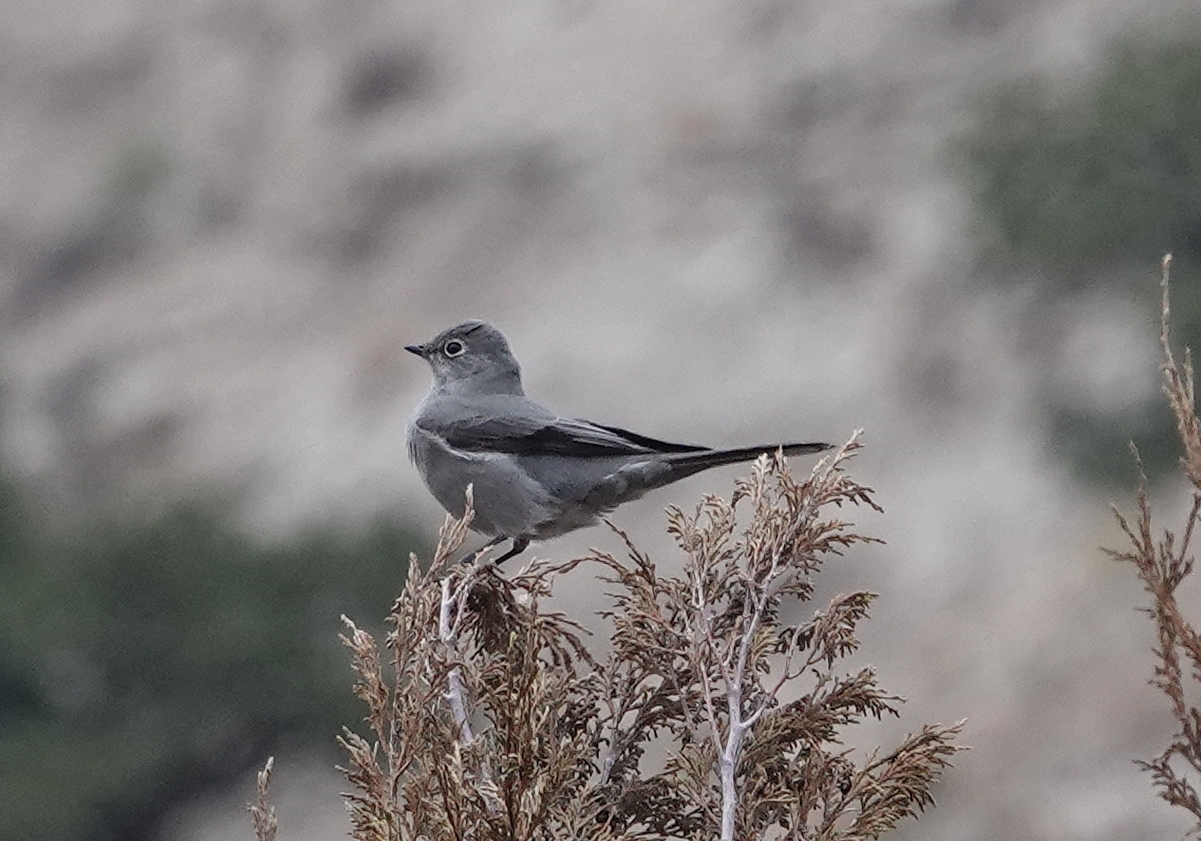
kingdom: Animalia
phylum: Chordata
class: Aves
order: Passeriformes
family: Turdidae
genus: Myadestes
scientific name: Myadestes townsendi
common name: Townsend's solitaire
